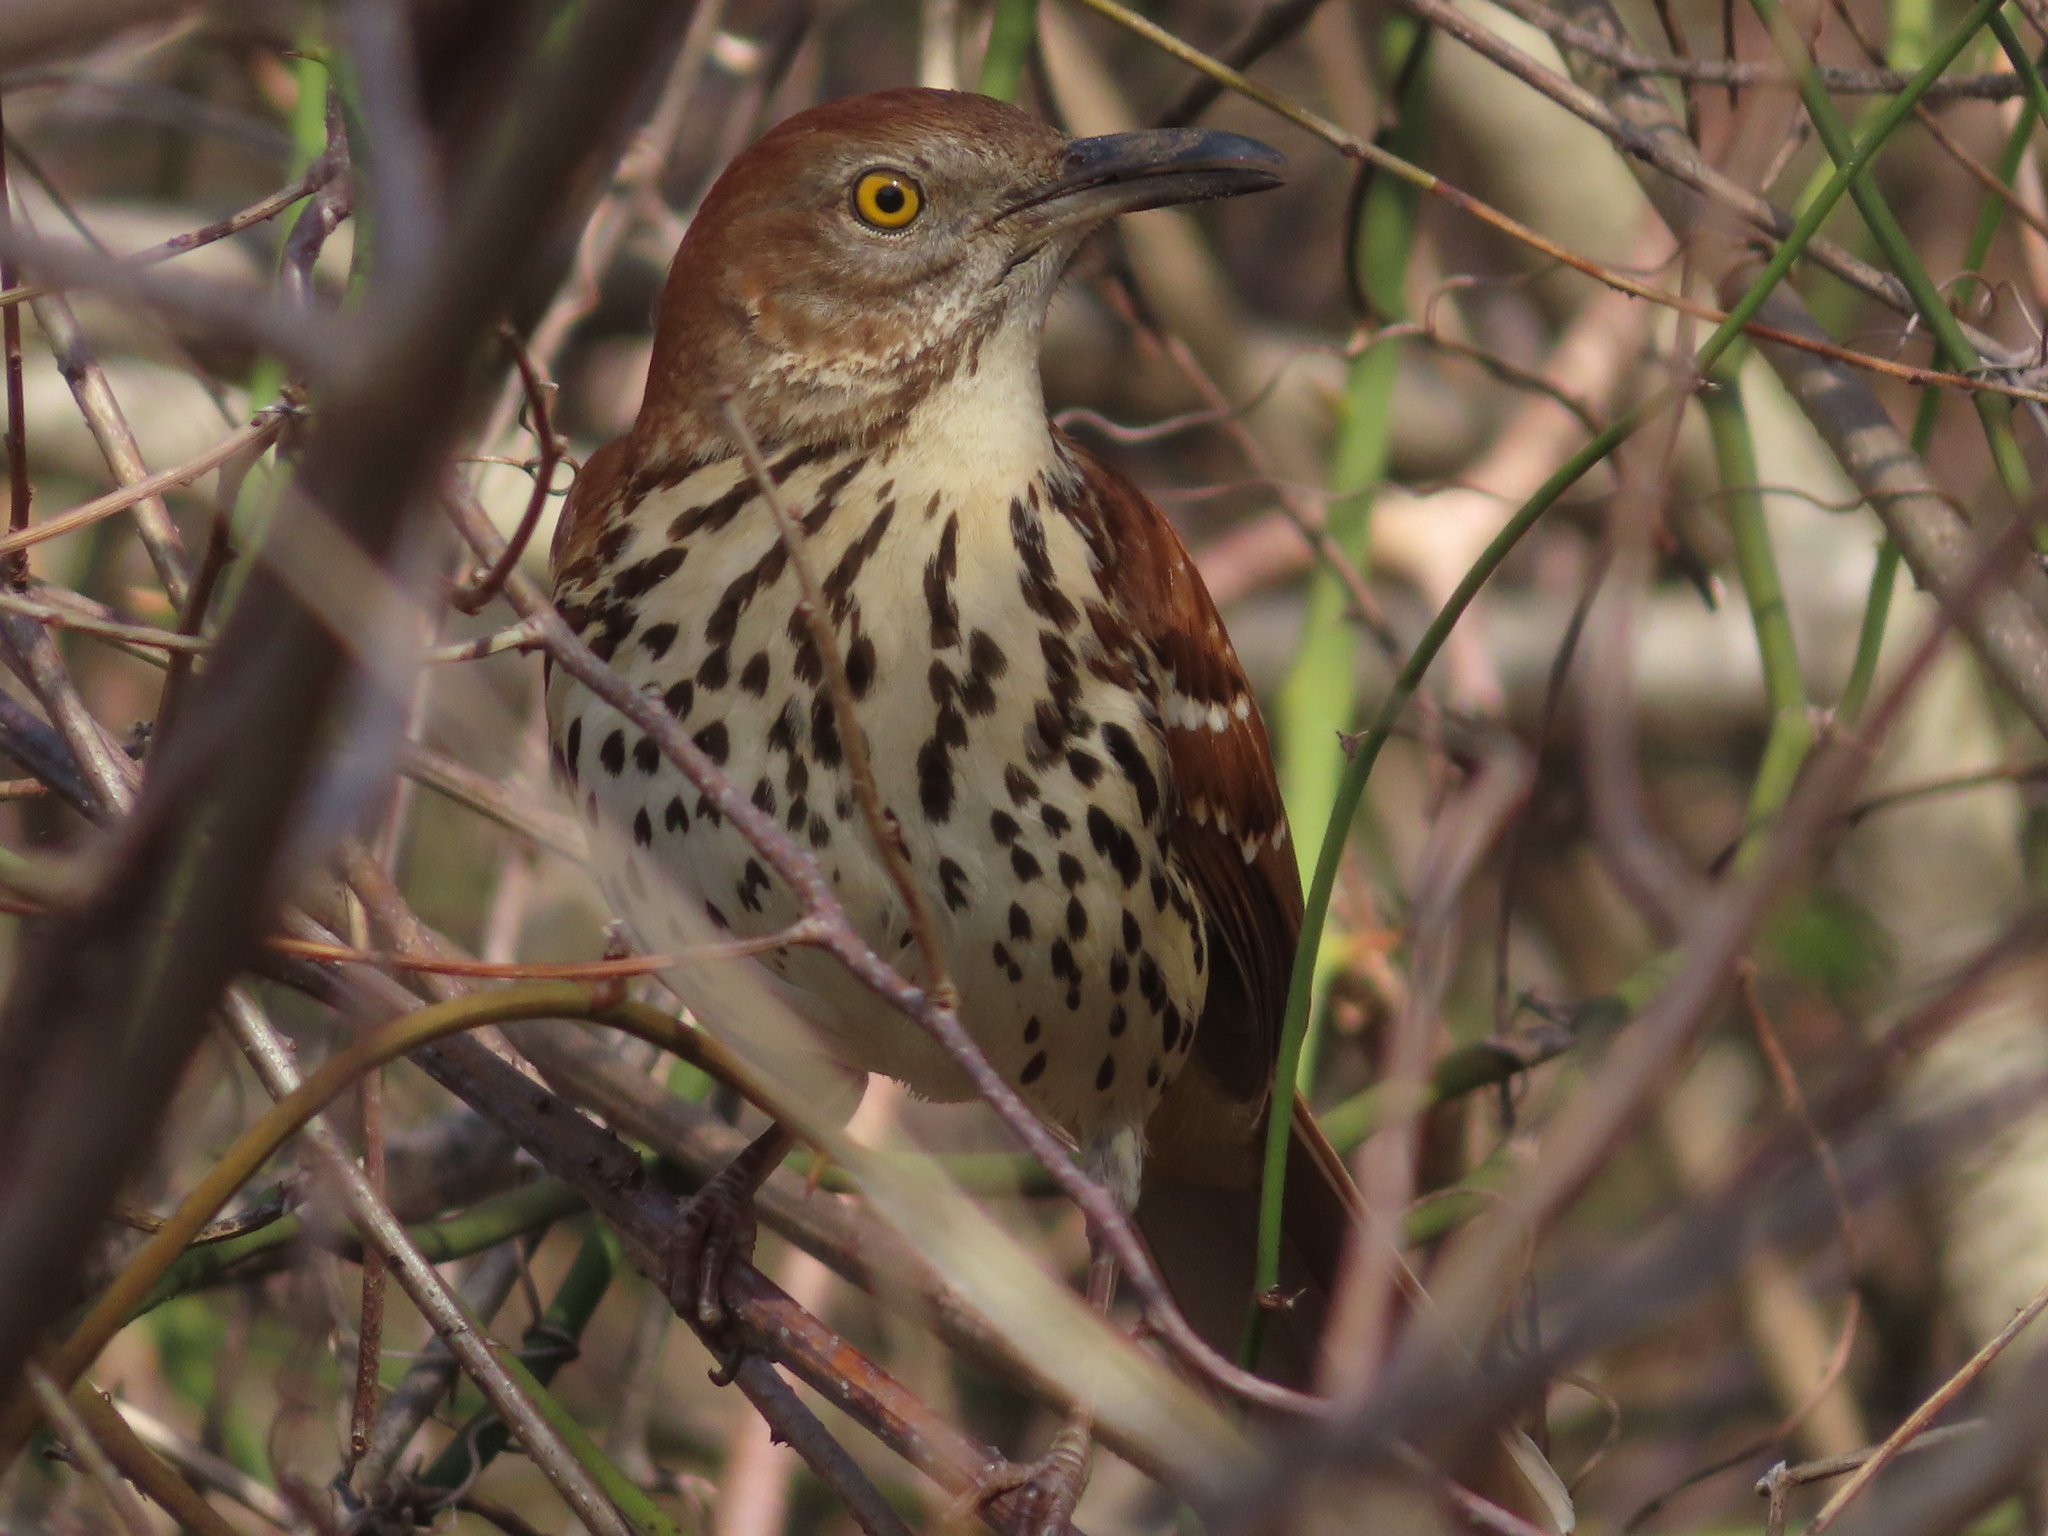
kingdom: Animalia
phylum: Chordata
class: Aves
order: Passeriformes
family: Mimidae
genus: Toxostoma
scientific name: Toxostoma rufum
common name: Brown thrasher
